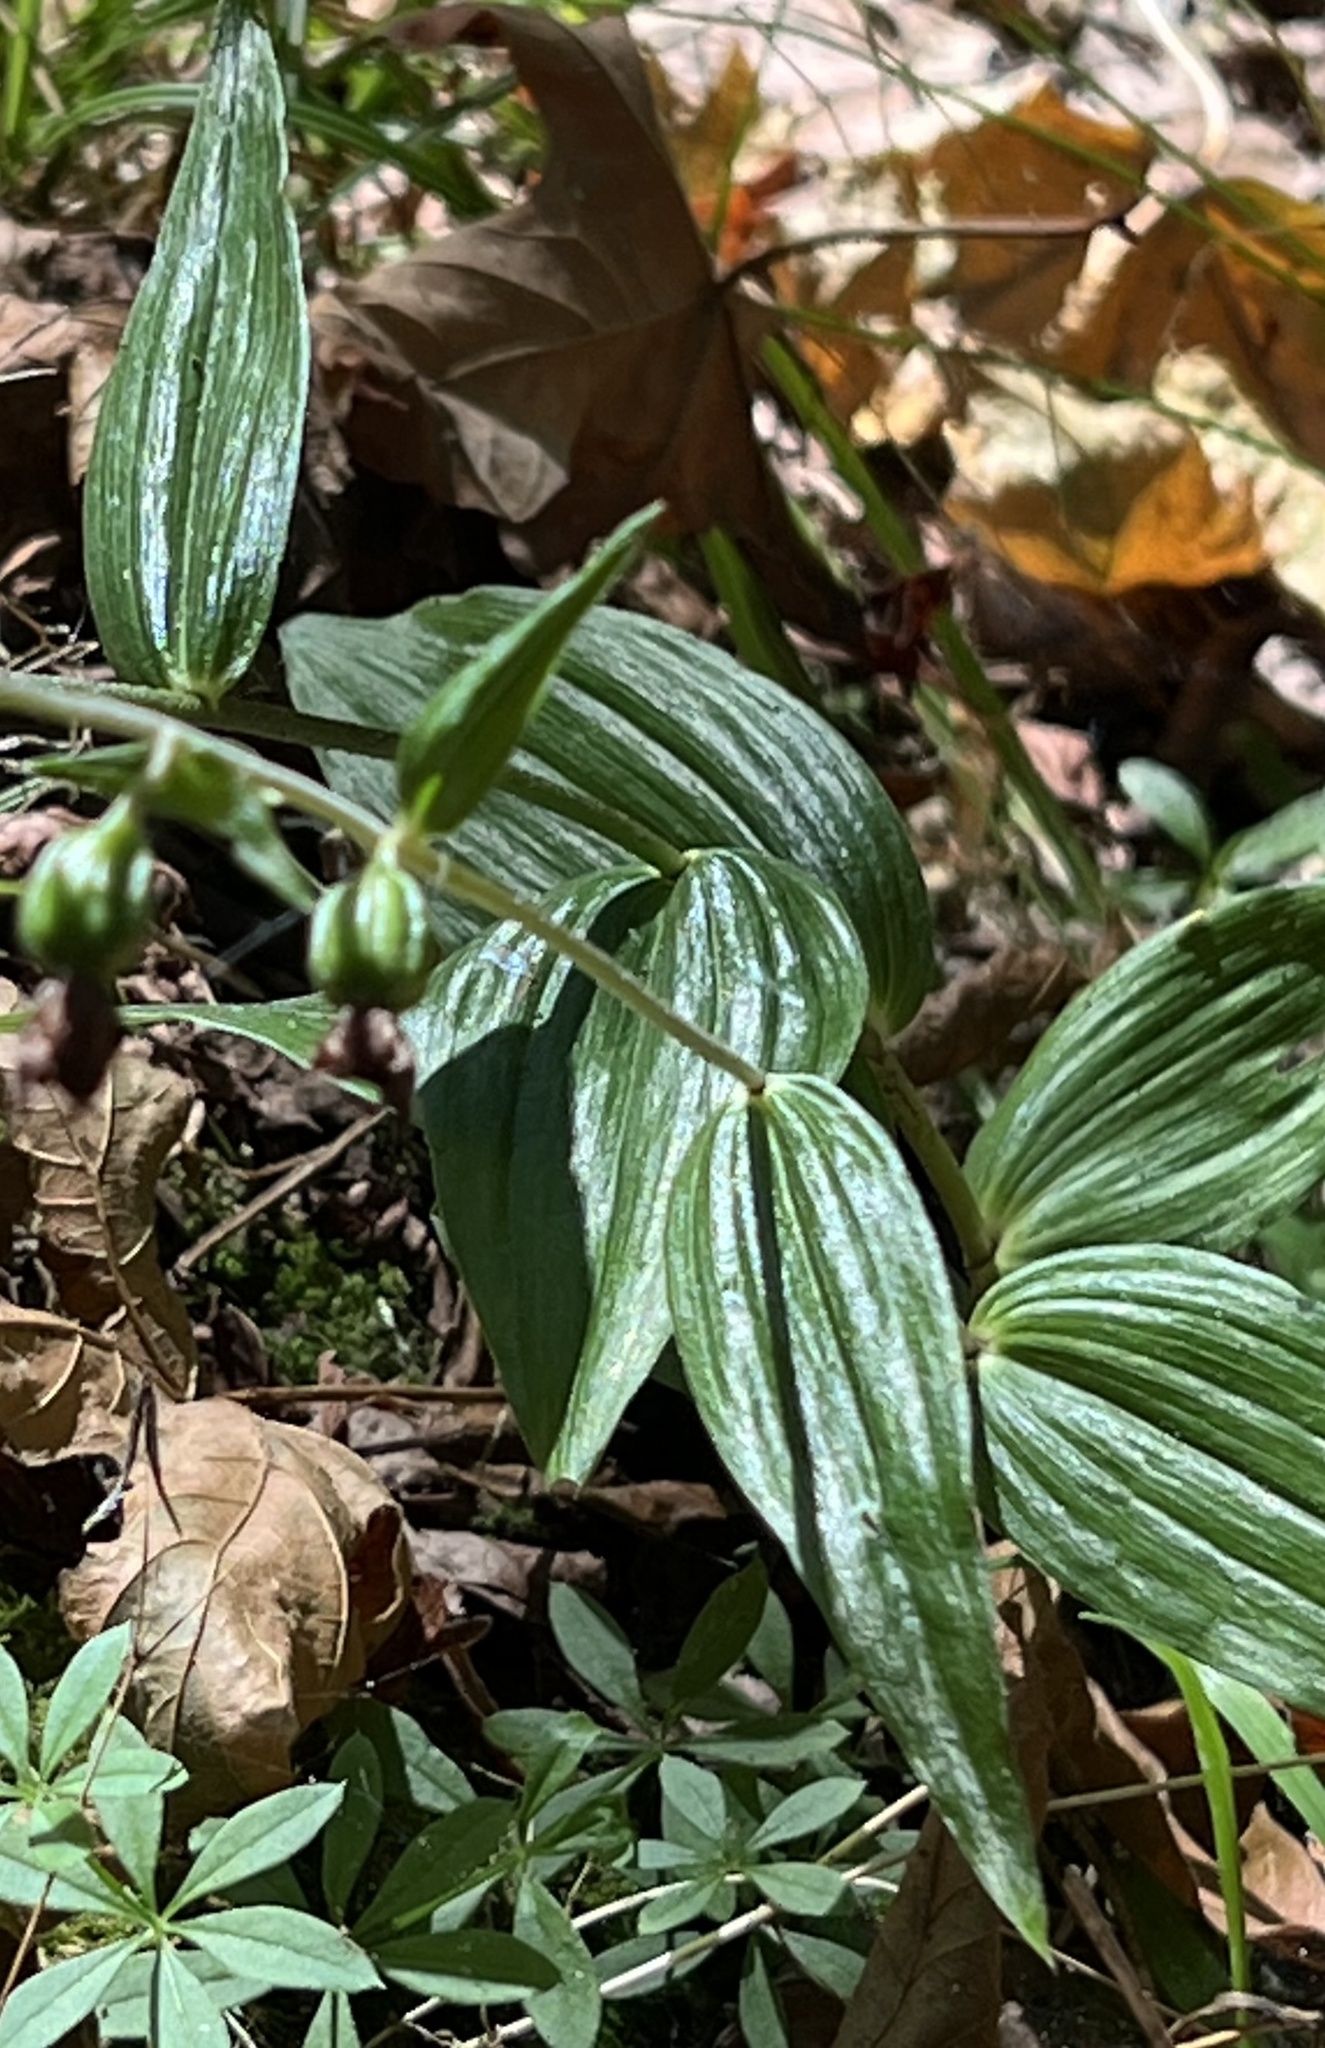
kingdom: Plantae
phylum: Tracheophyta
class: Liliopsida
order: Asparagales
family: Orchidaceae
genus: Epipactis
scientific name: Epipactis helleborine
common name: Broad-leaved helleborine
